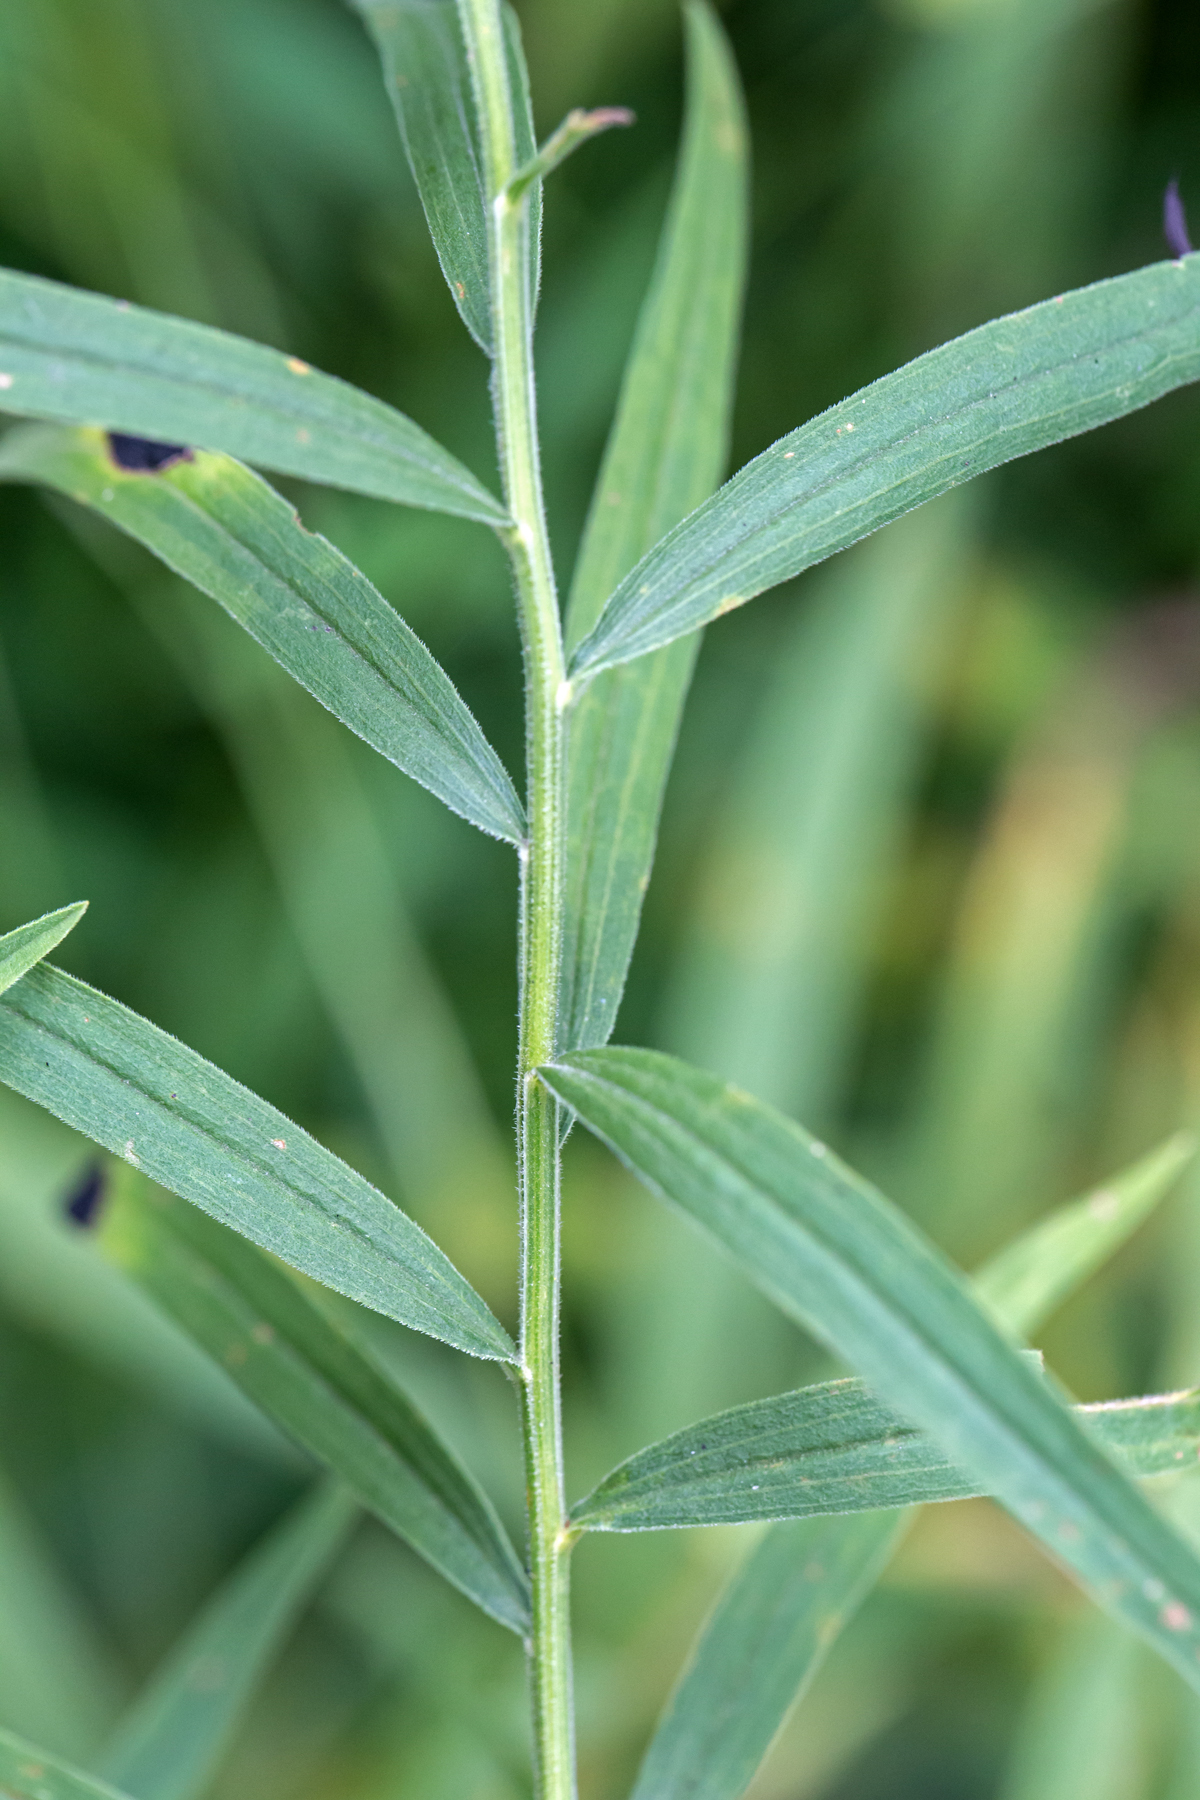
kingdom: Plantae
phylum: Tracheophyta
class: Magnoliopsida
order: Asterales
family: Asteraceae
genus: Euthamia
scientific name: Euthamia graminifolia
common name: Common goldentop
